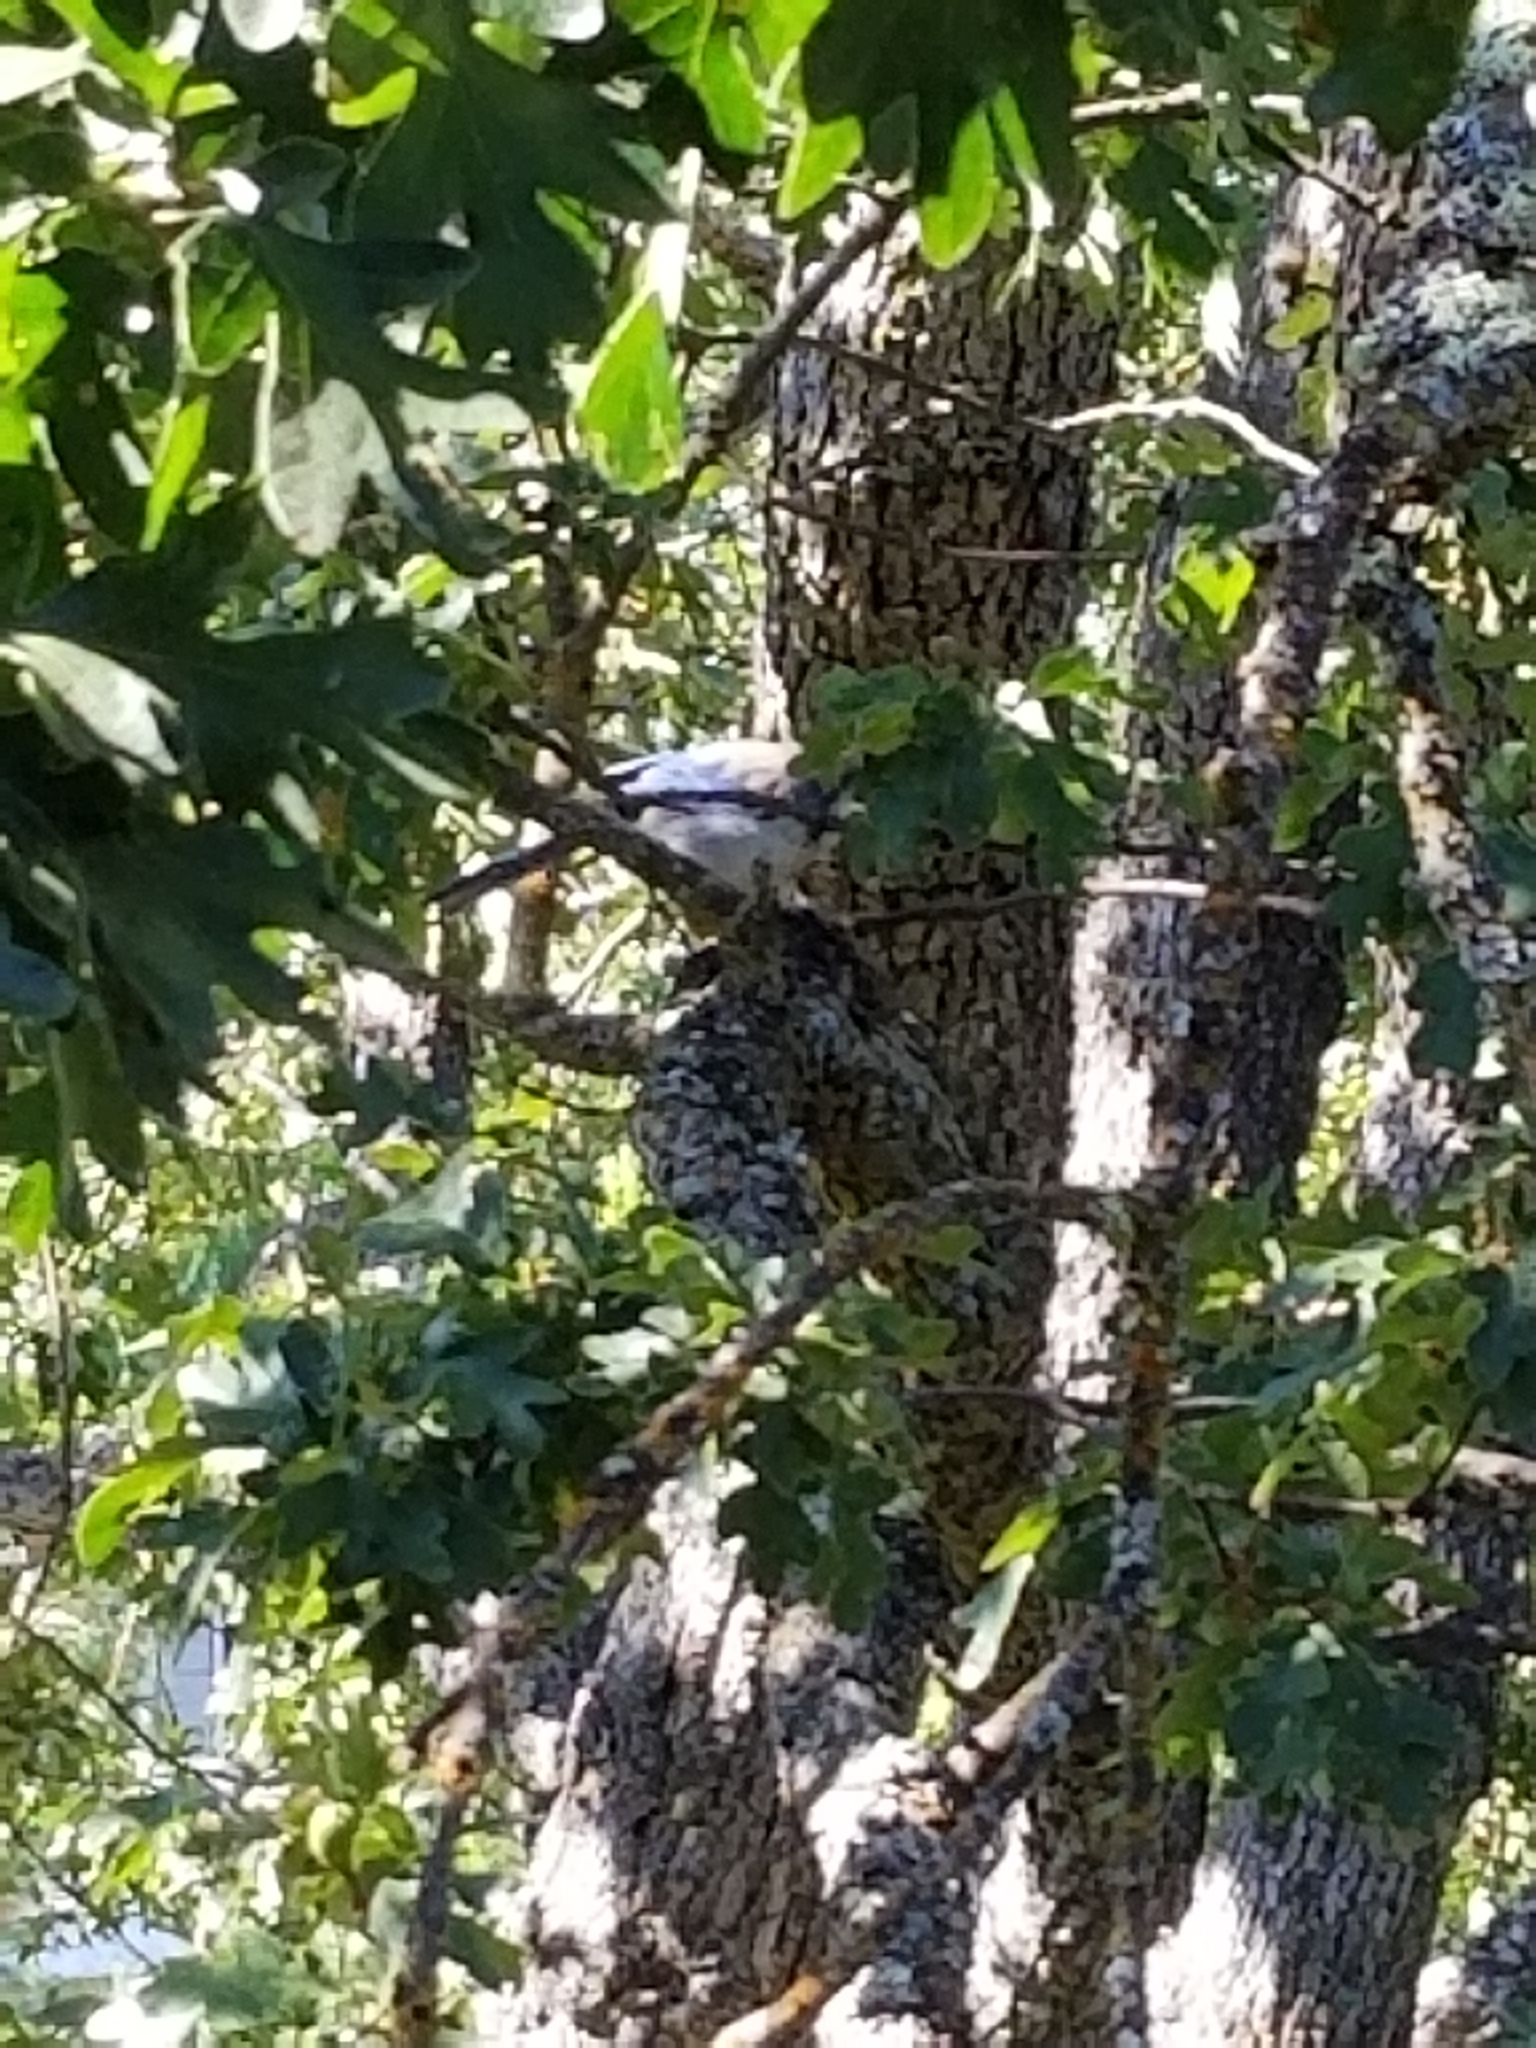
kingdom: Animalia
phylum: Chordata
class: Aves
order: Passeriformes
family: Corvidae
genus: Aphelocoma
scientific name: Aphelocoma californica
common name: California scrub-jay
